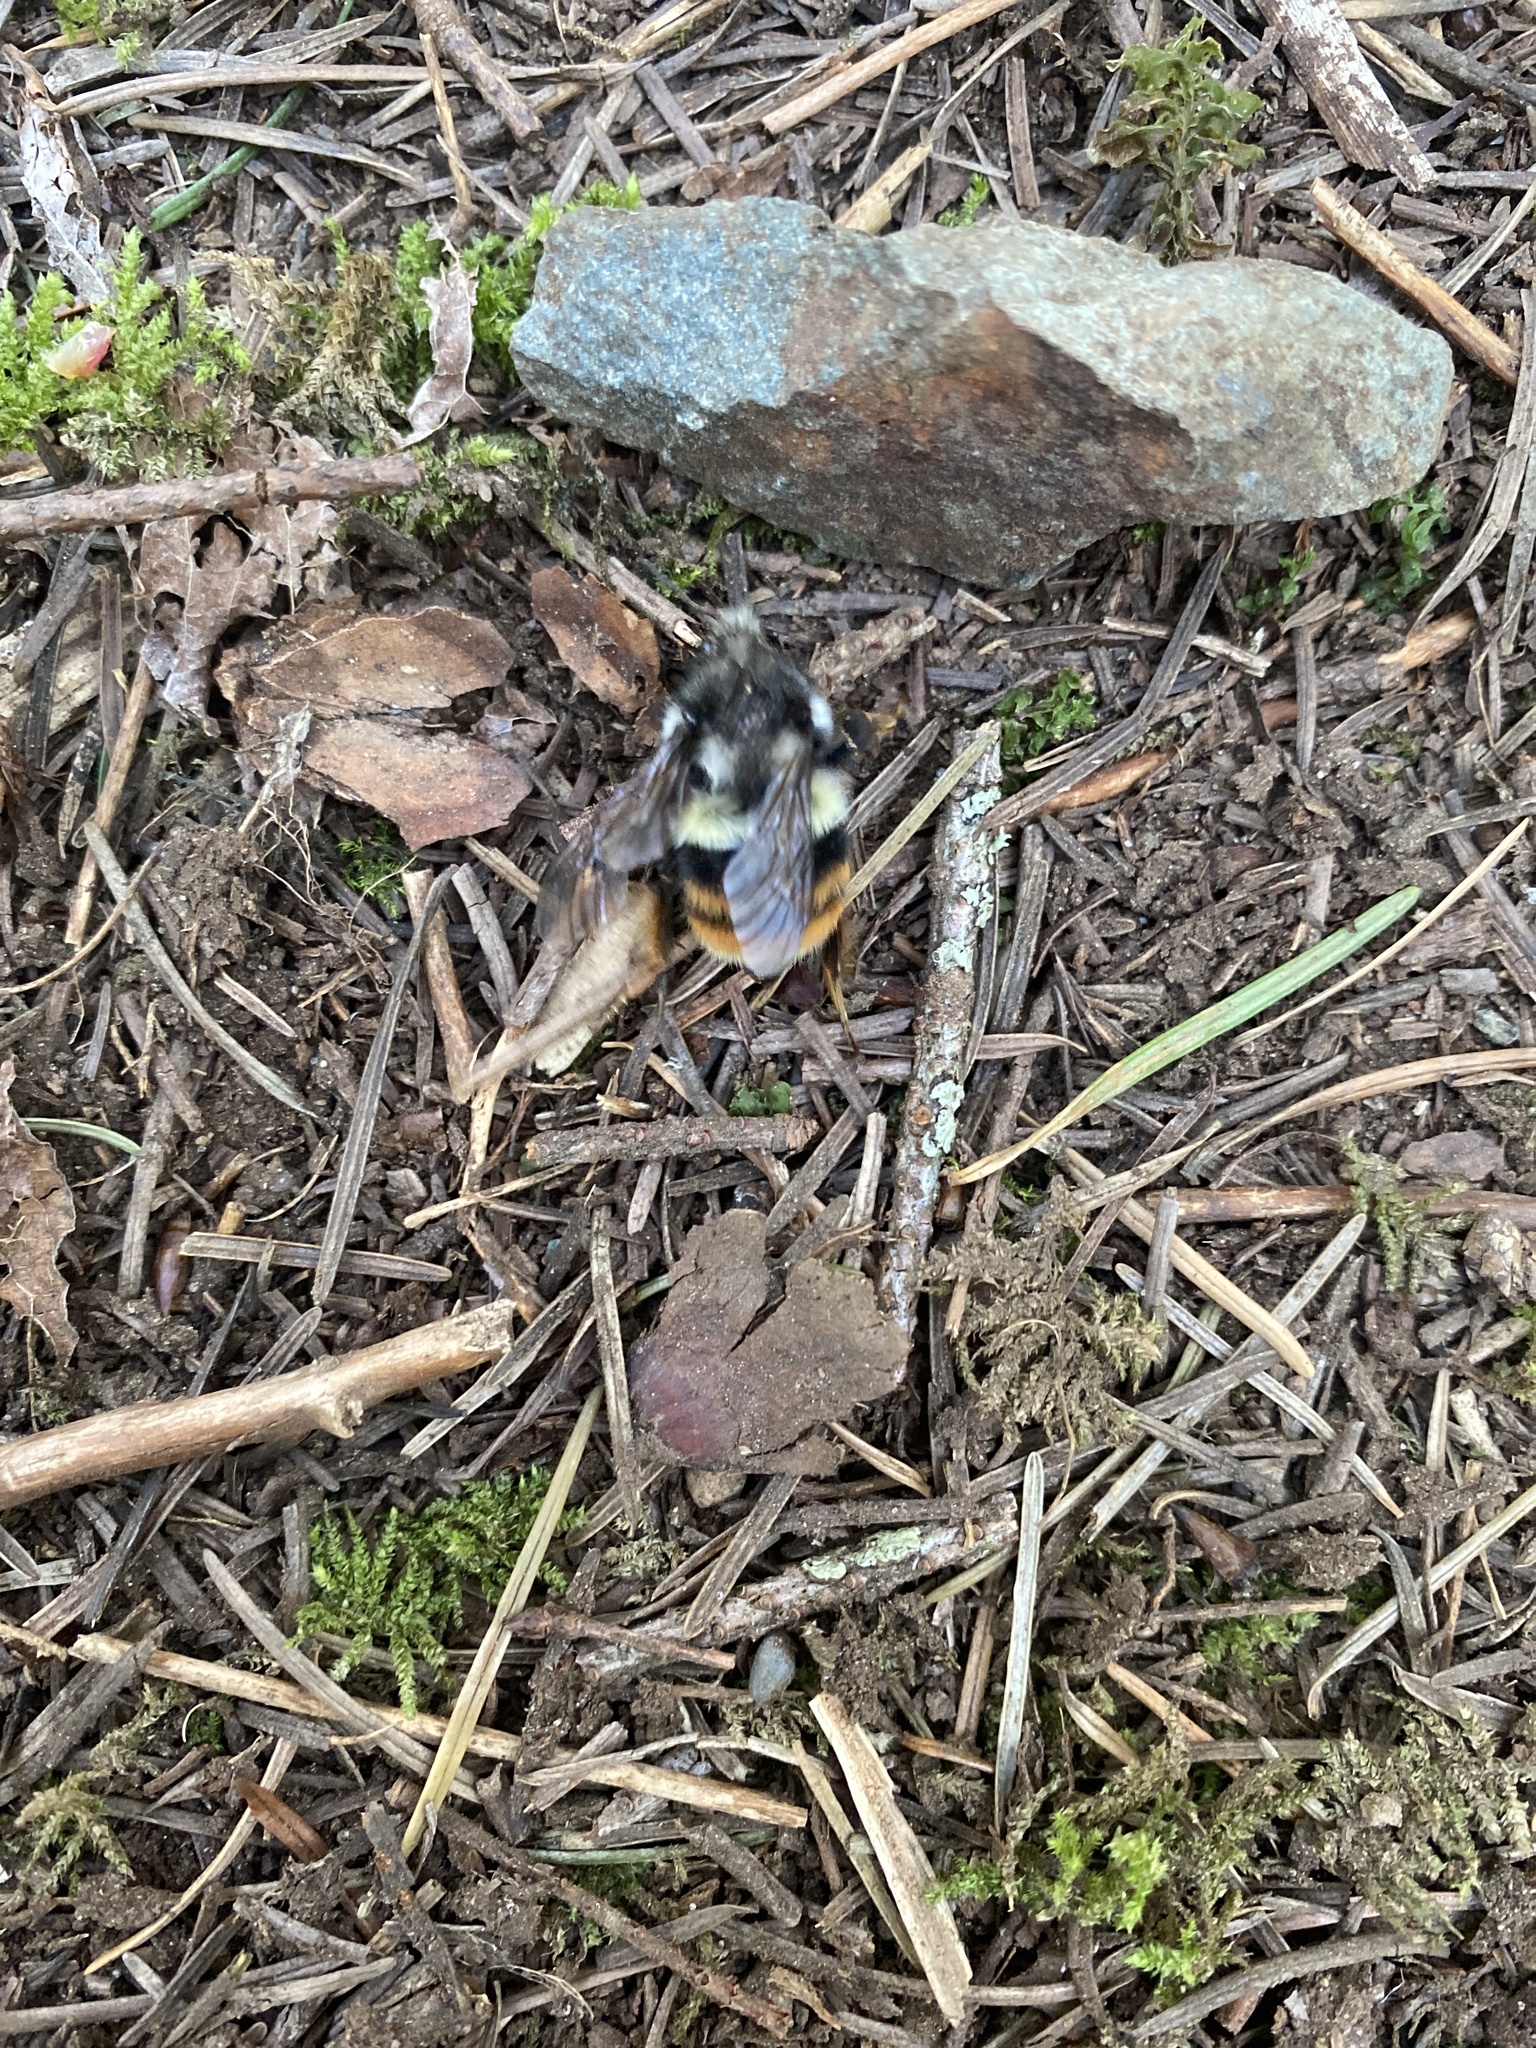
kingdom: Animalia
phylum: Arthropoda
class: Insecta
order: Hymenoptera
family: Apidae
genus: Bombus
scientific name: Bombus vancouverensis
